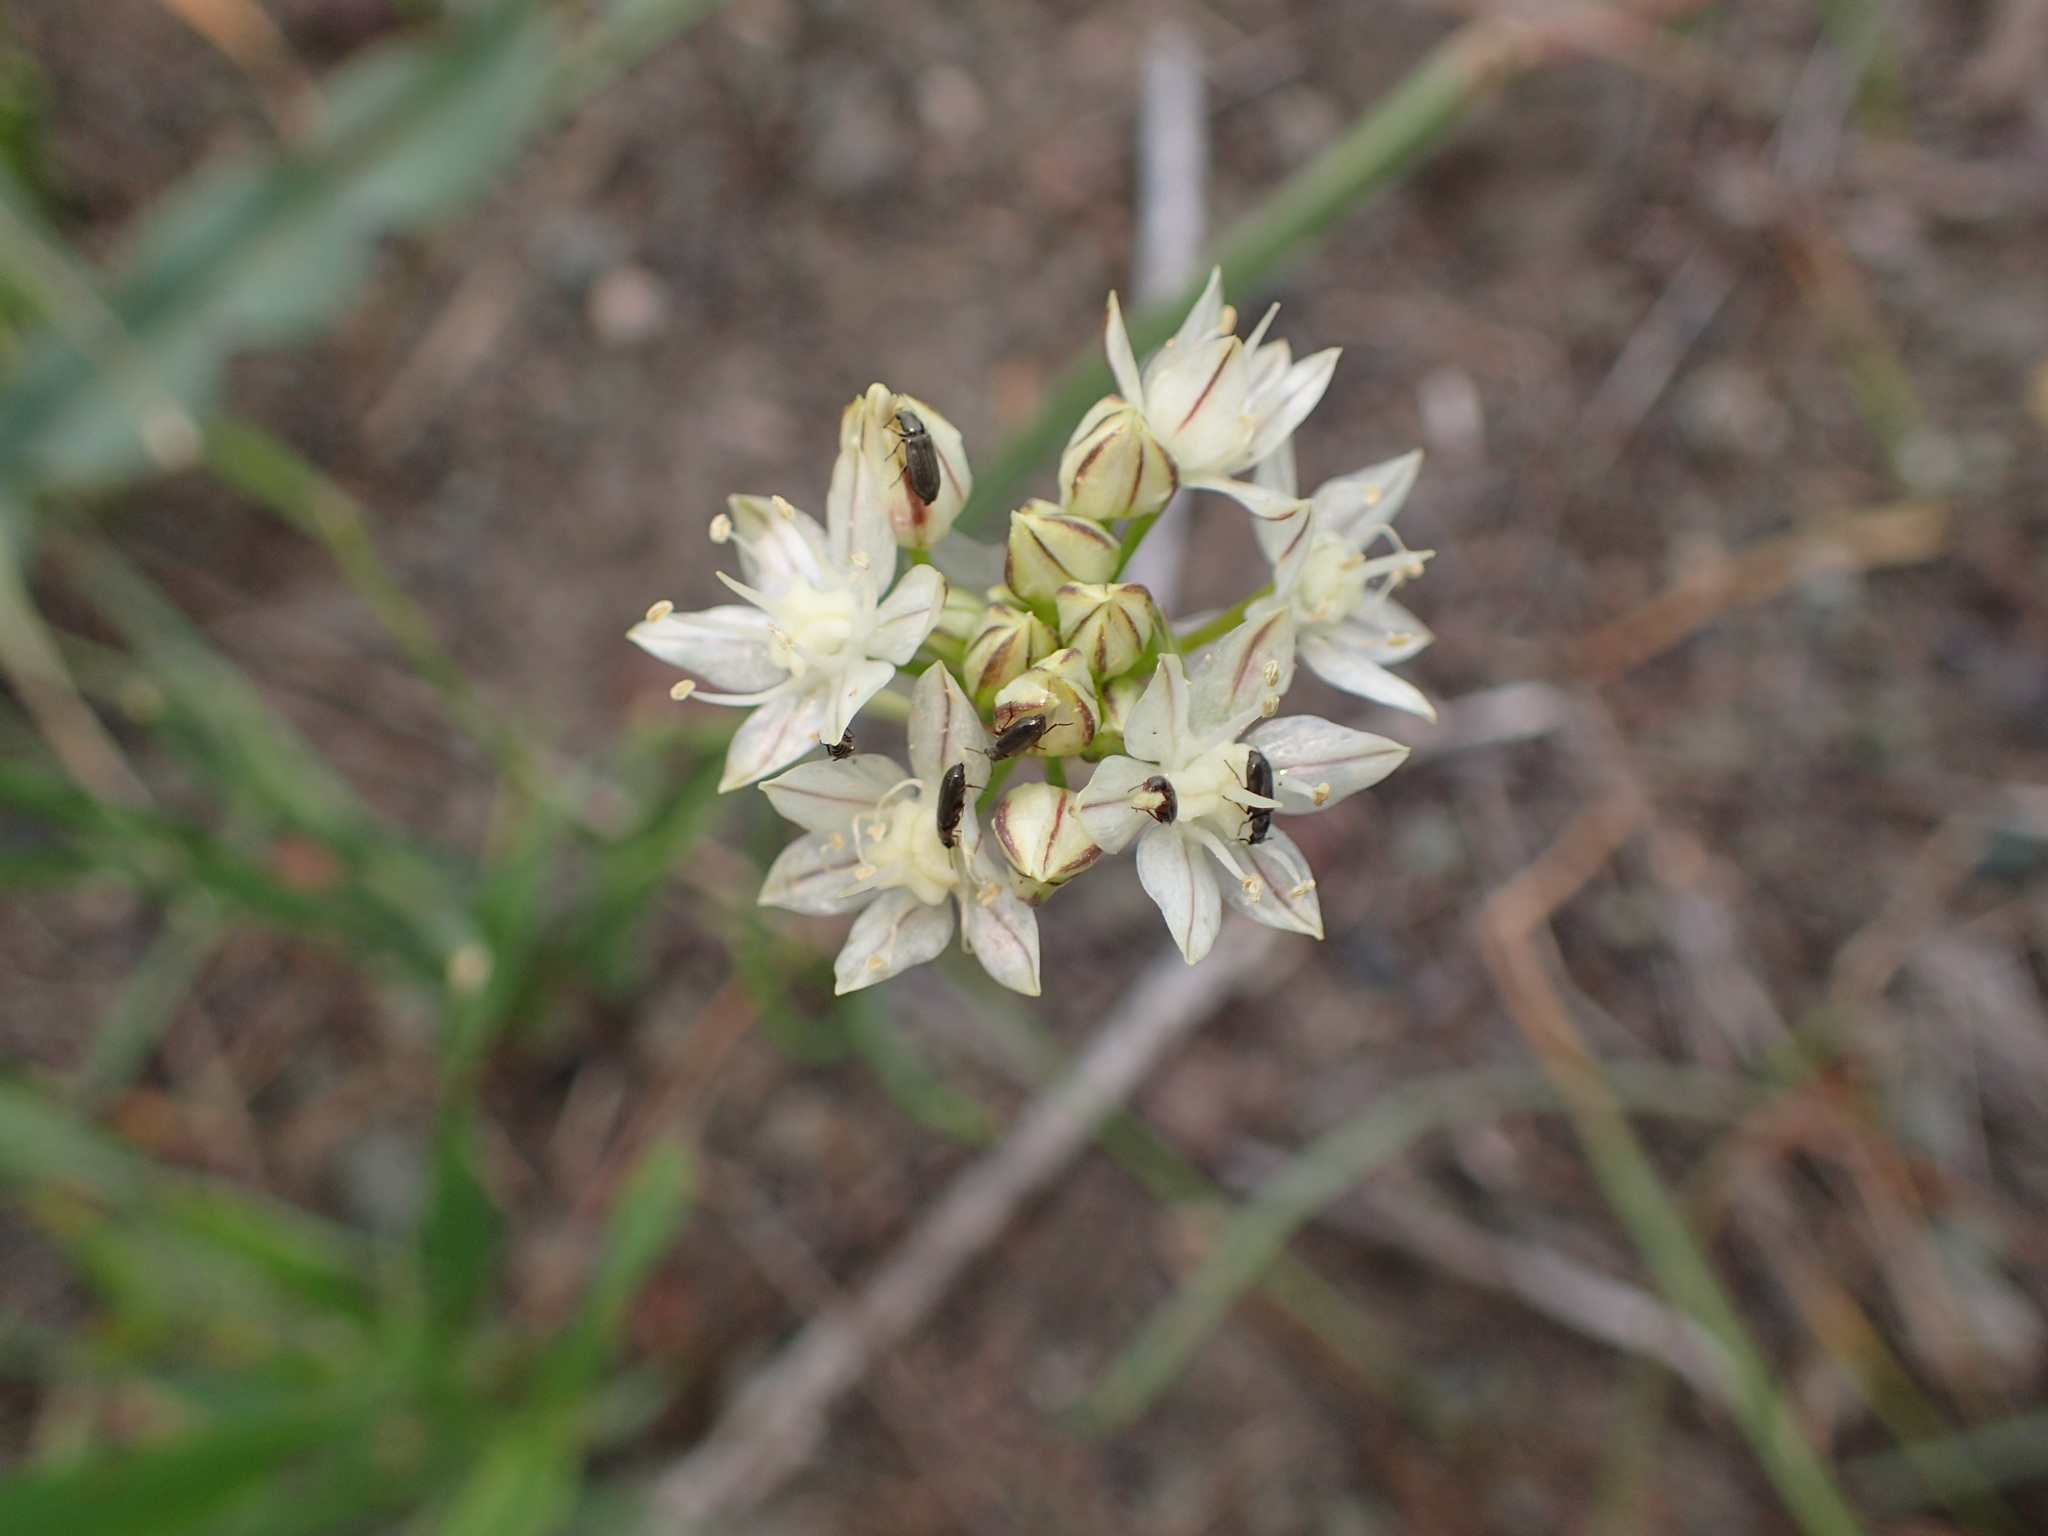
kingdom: Plantae
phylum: Tracheophyta
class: Liliopsida
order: Asparagales
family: Amaryllidaceae
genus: Allium
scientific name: Allium haematochiton
